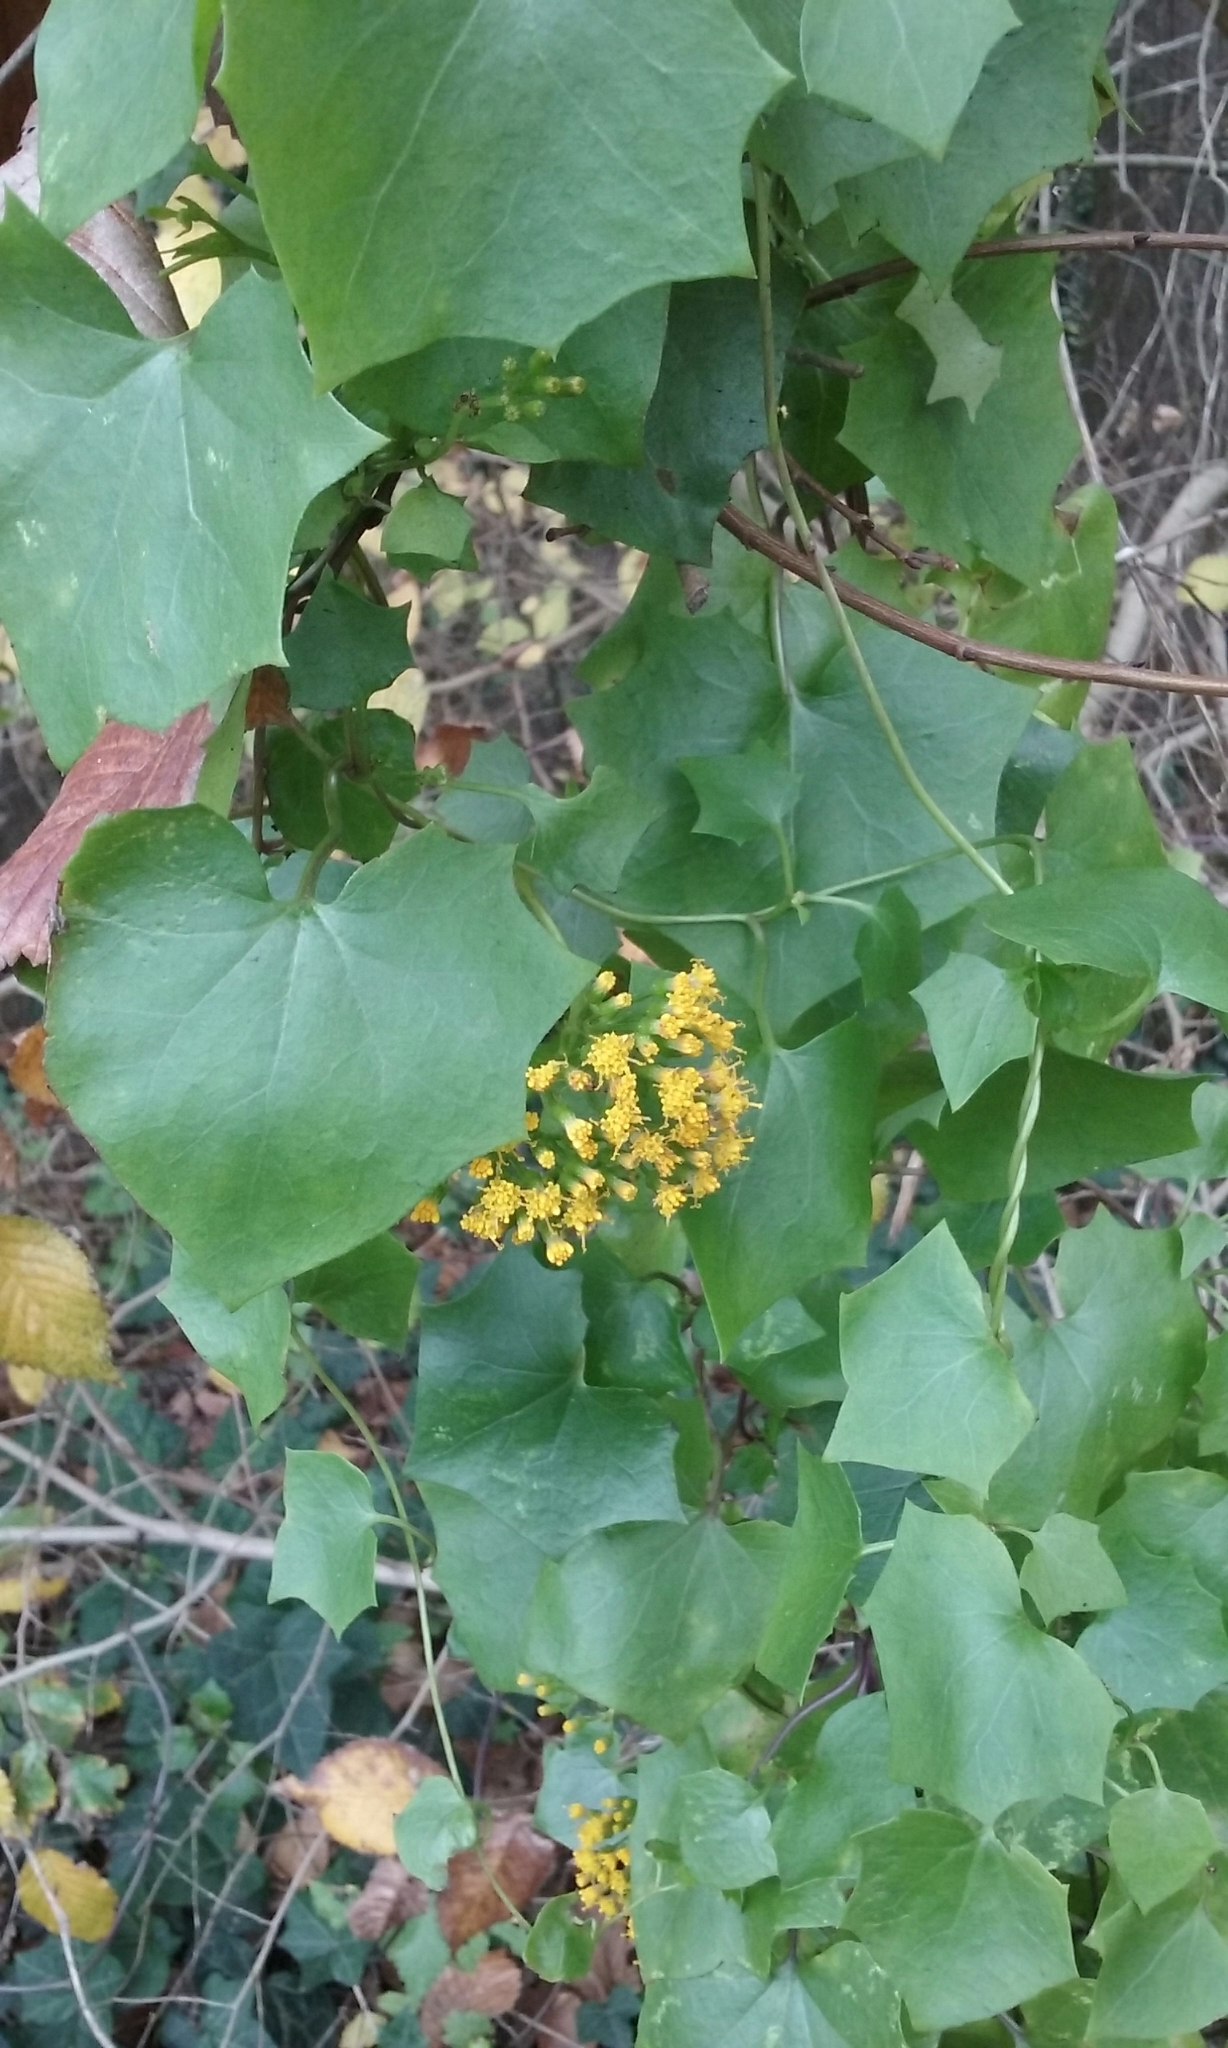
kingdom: Plantae
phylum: Tracheophyta
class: Magnoliopsida
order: Asterales
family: Asteraceae
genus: Delairea
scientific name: Delairea odorata
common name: Cape-ivy
